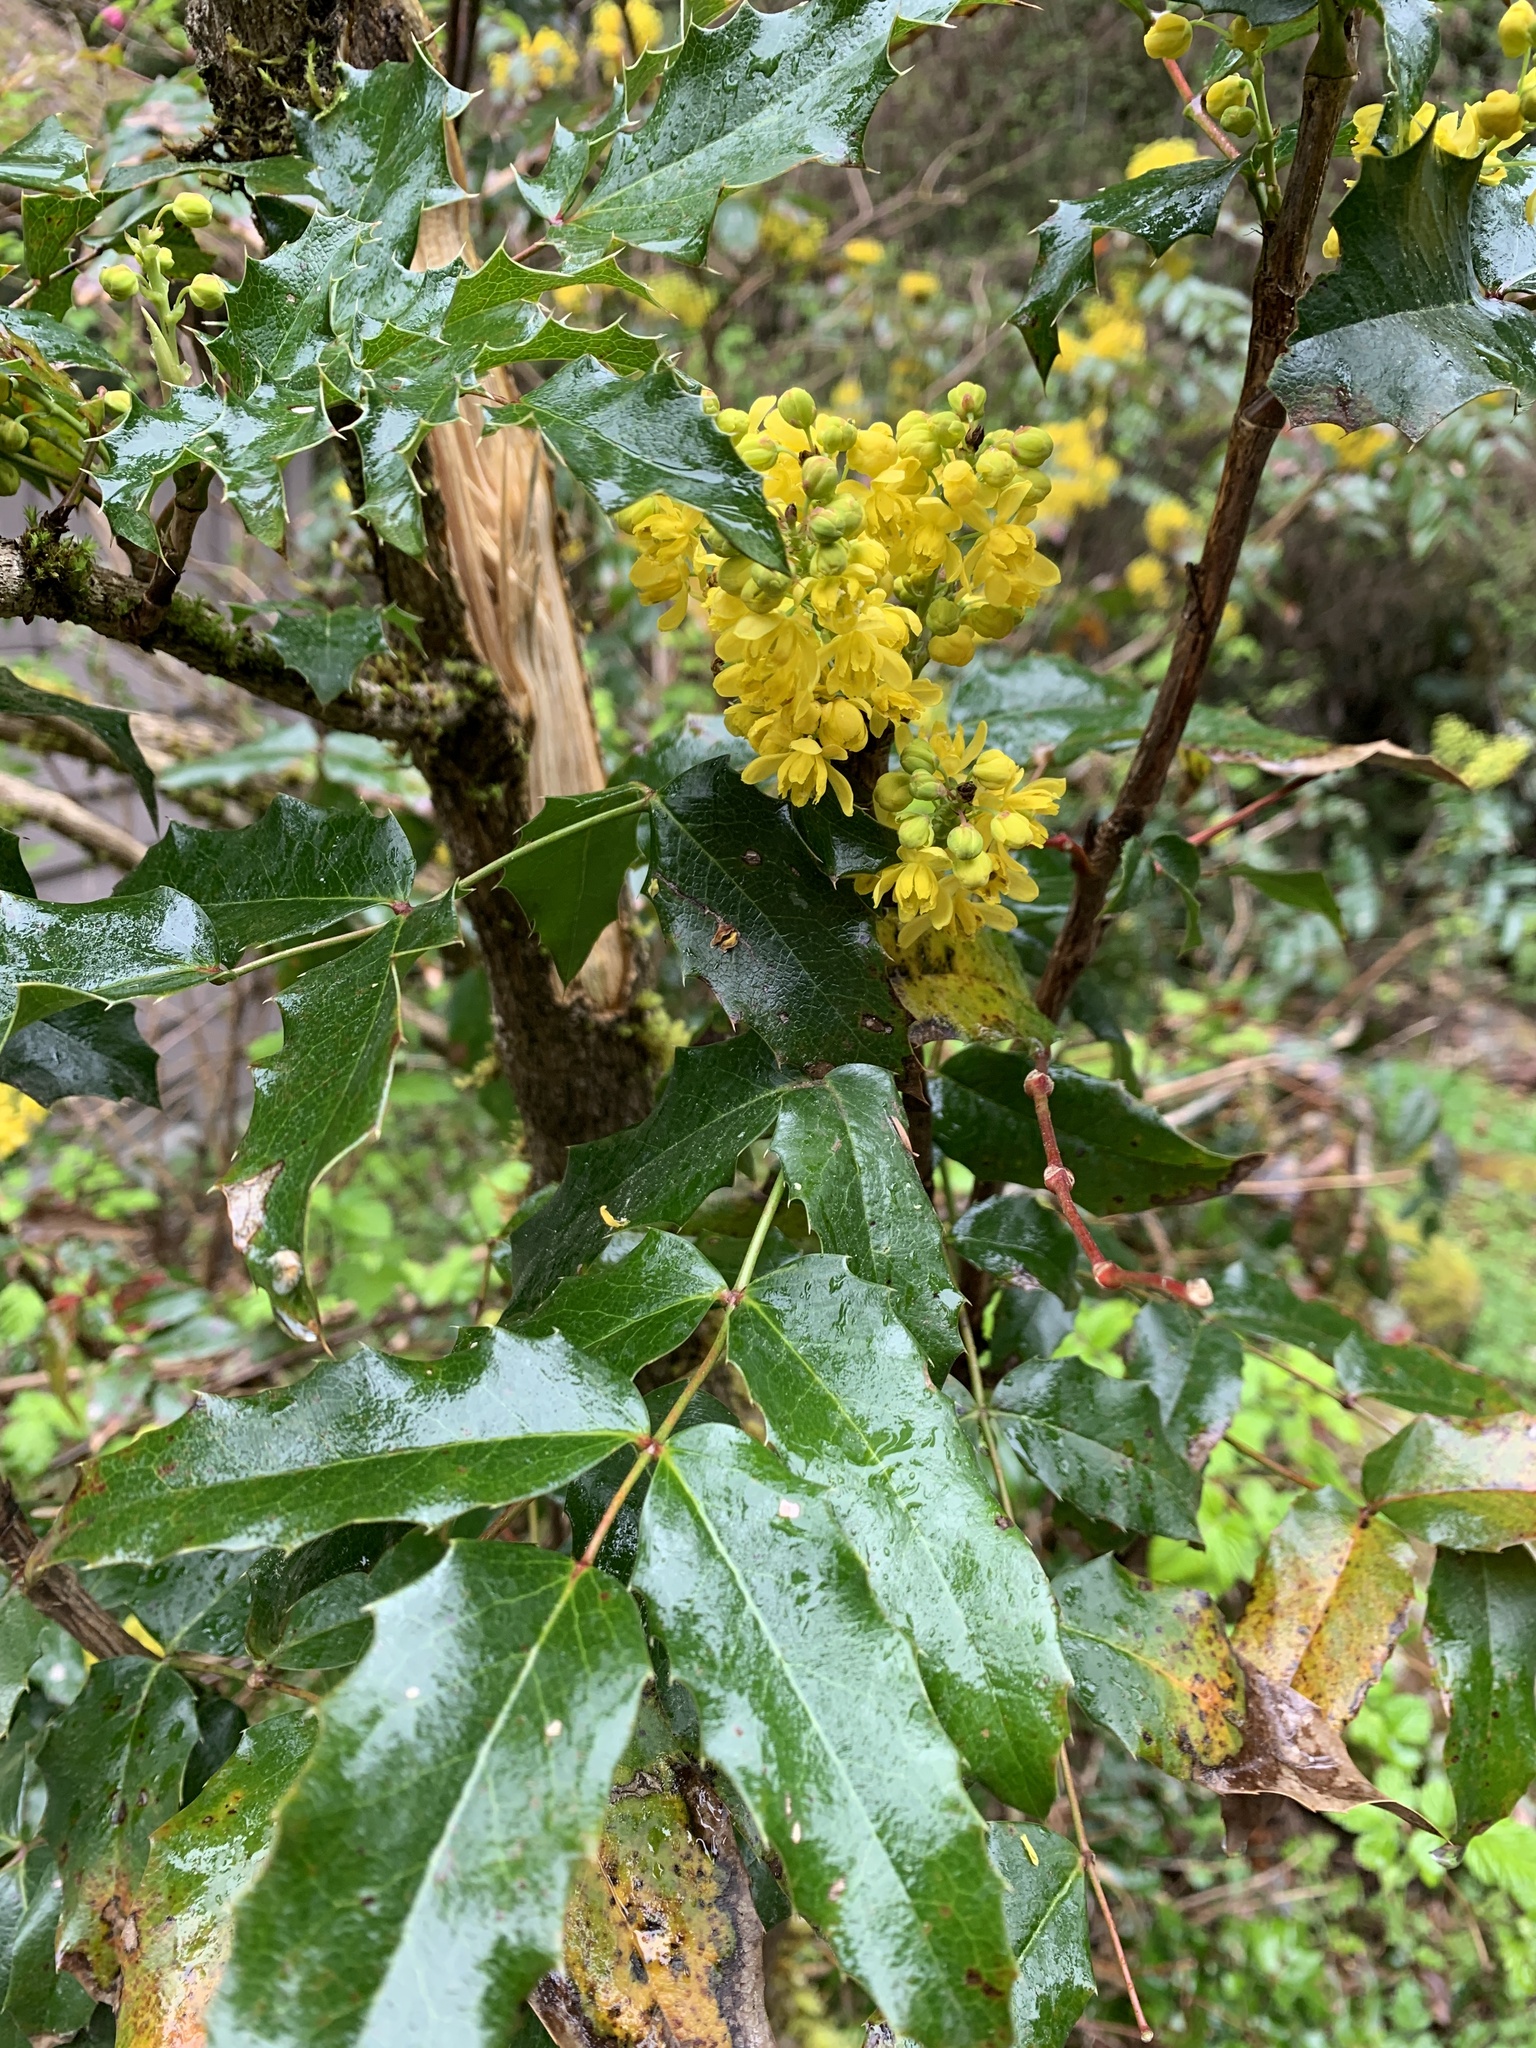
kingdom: Plantae
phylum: Tracheophyta
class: Magnoliopsida
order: Ranunculales
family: Berberidaceae
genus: Mahonia
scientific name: Mahonia aquifolium
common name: Oregon-grape
